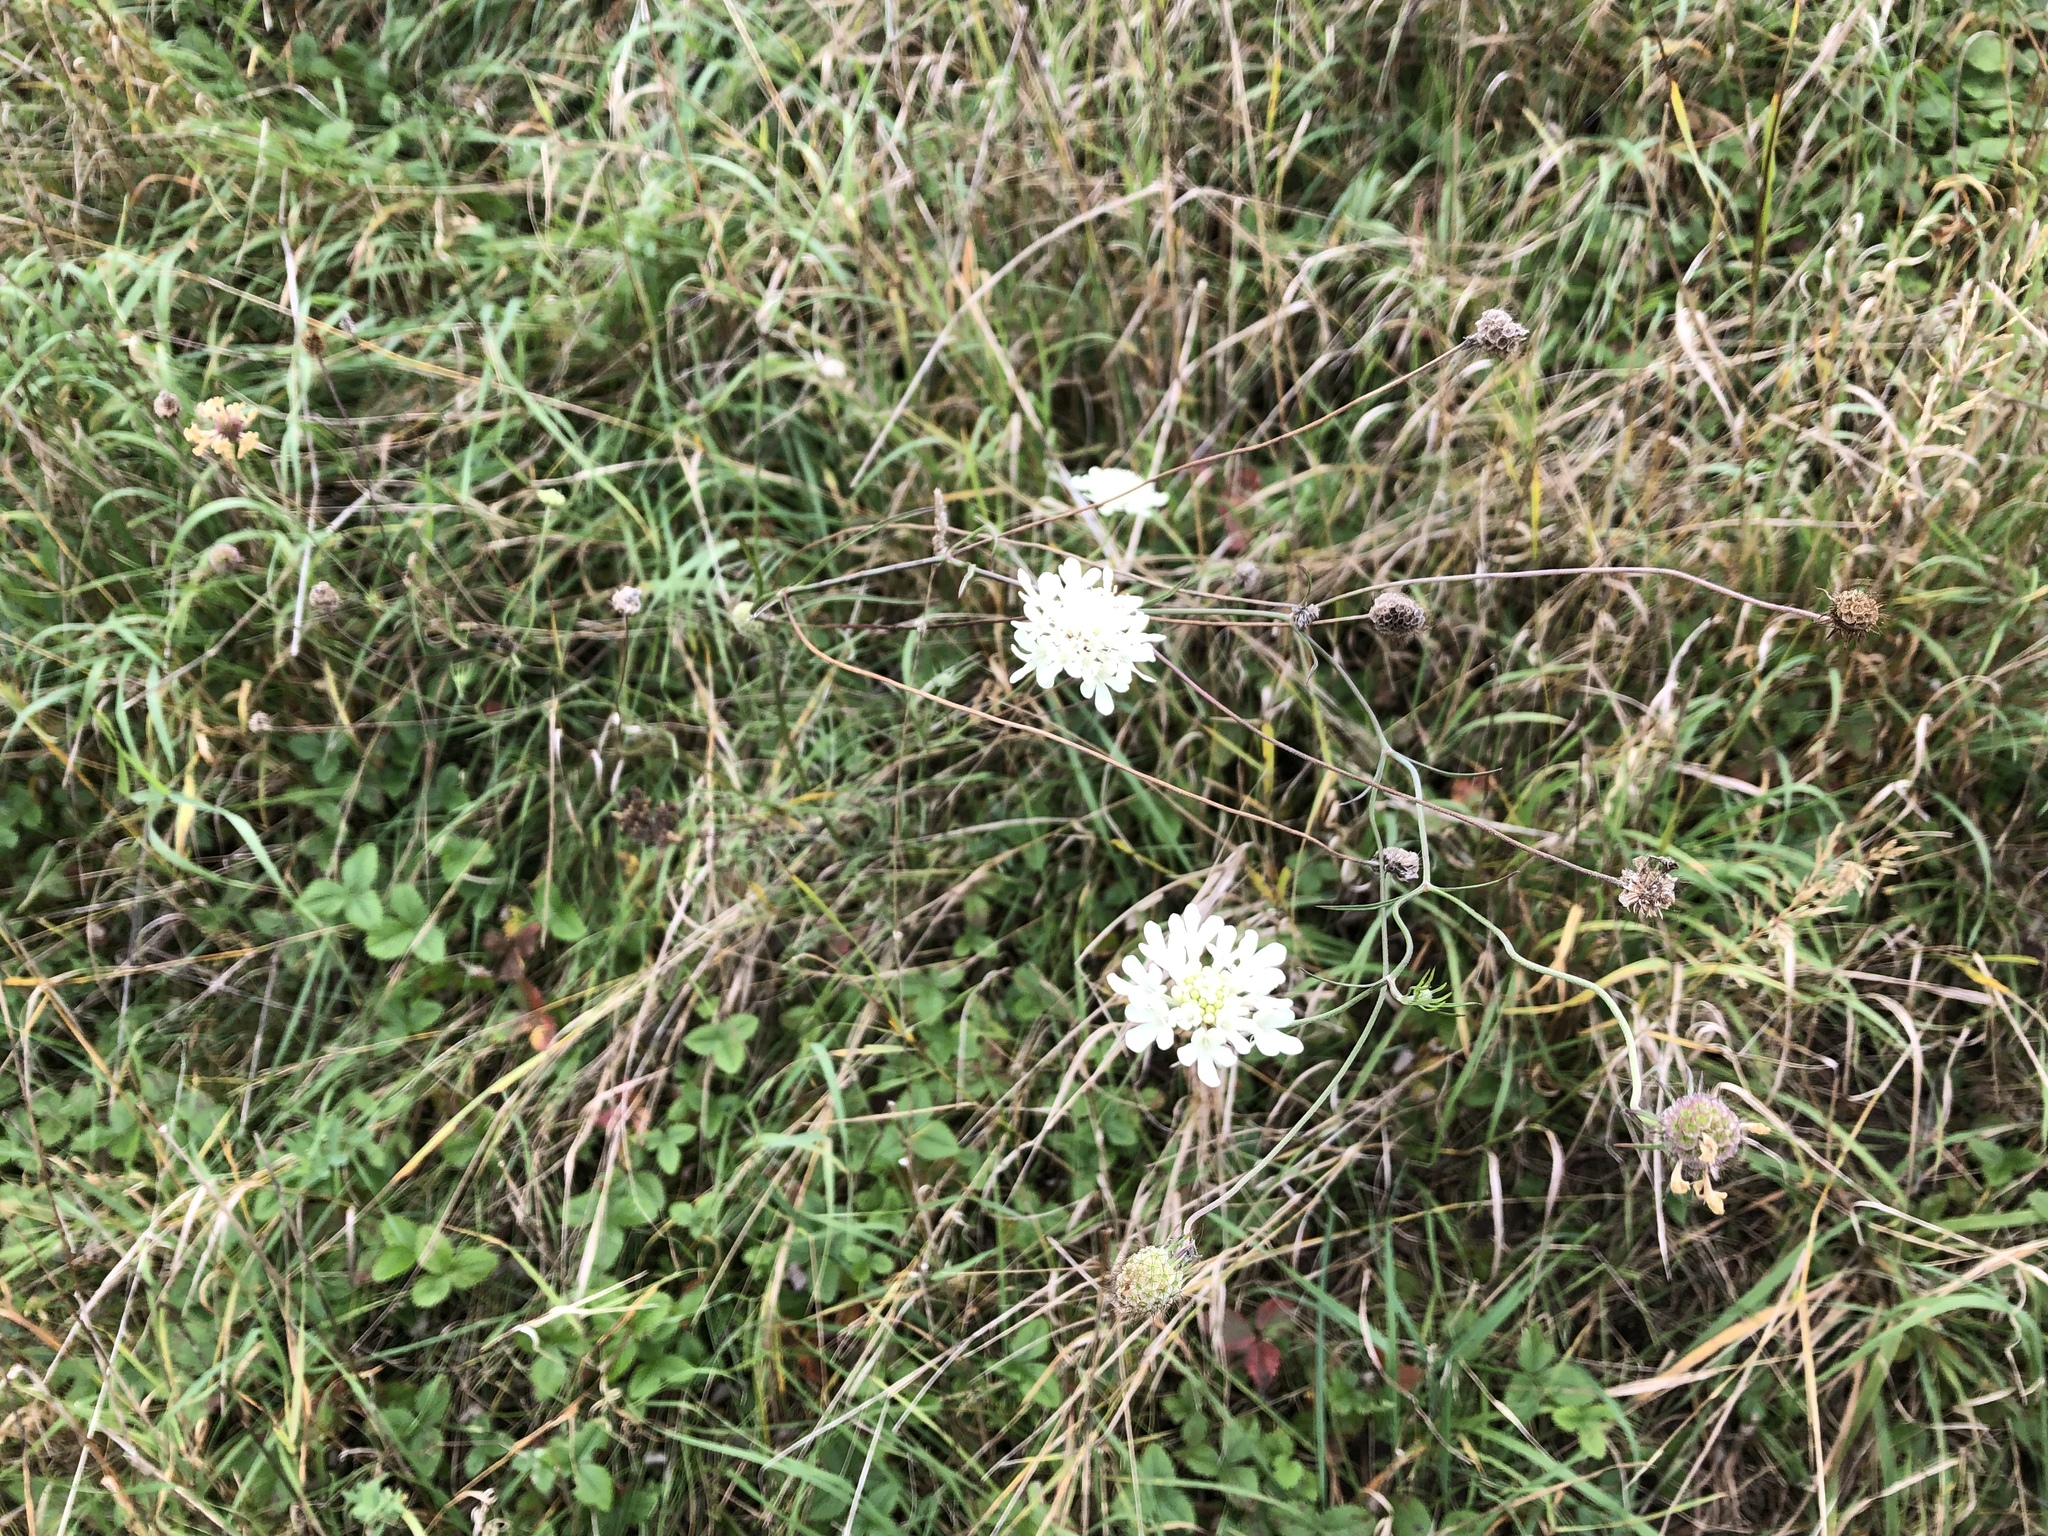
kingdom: Plantae
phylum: Tracheophyta
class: Magnoliopsida
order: Dipsacales
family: Caprifoliaceae
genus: Scabiosa
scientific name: Scabiosa ochroleuca
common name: Cream pincushions
